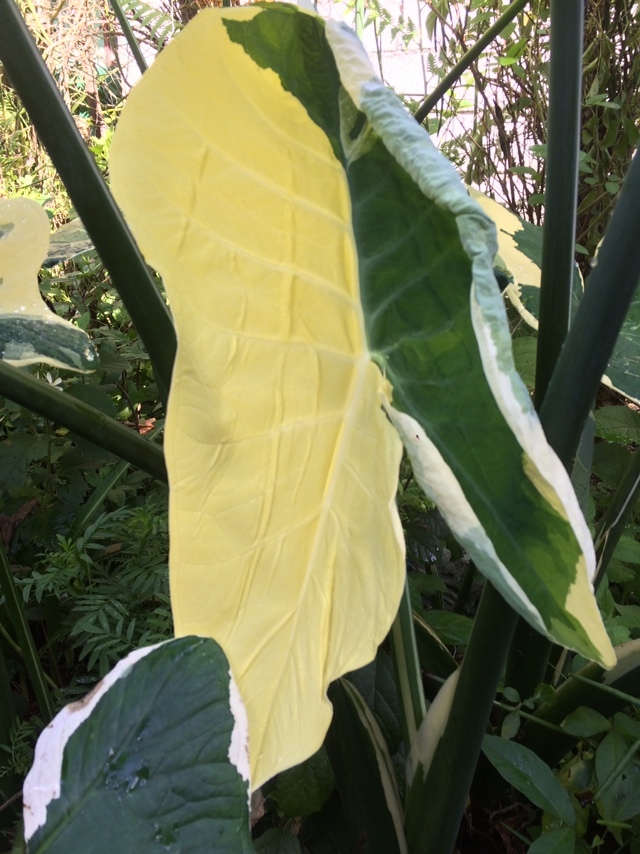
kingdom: Plantae
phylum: Tracheophyta
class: Liliopsida
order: Alismatales
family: Araceae
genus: Xanthosoma
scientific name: Xanthosoma sagittifolium
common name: Arrowleaf elephant's ear
